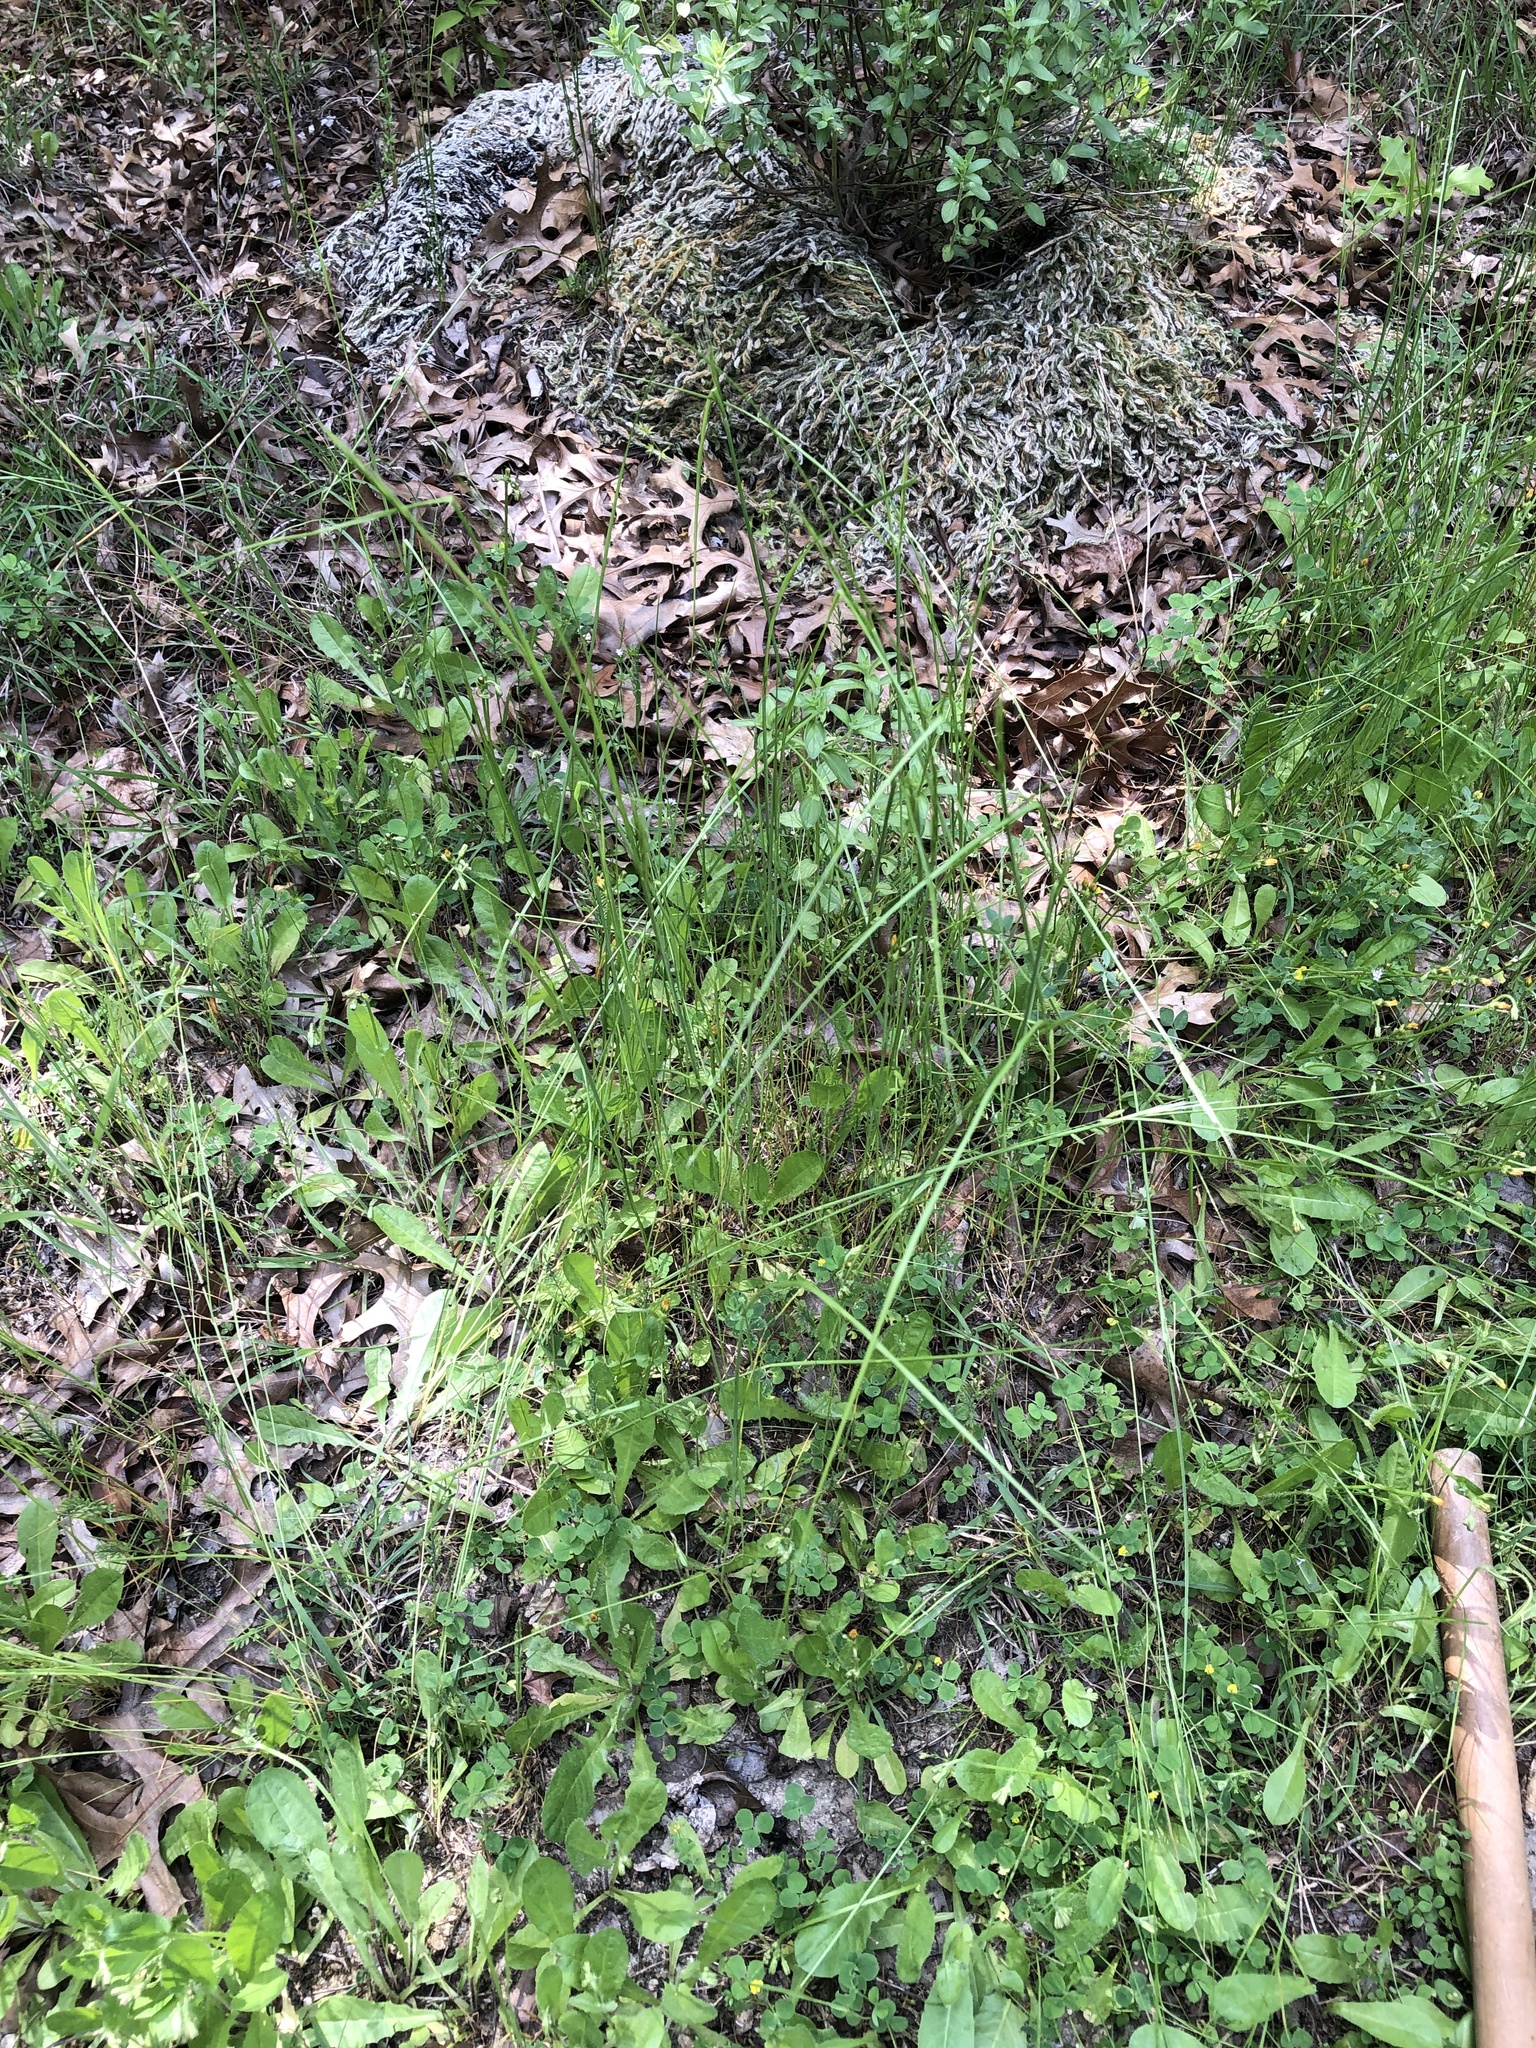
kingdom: Plantae
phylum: Tracheophyta
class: Liliopsida
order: Poales
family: Poaceae
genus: Festuca
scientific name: Festuca myuros
